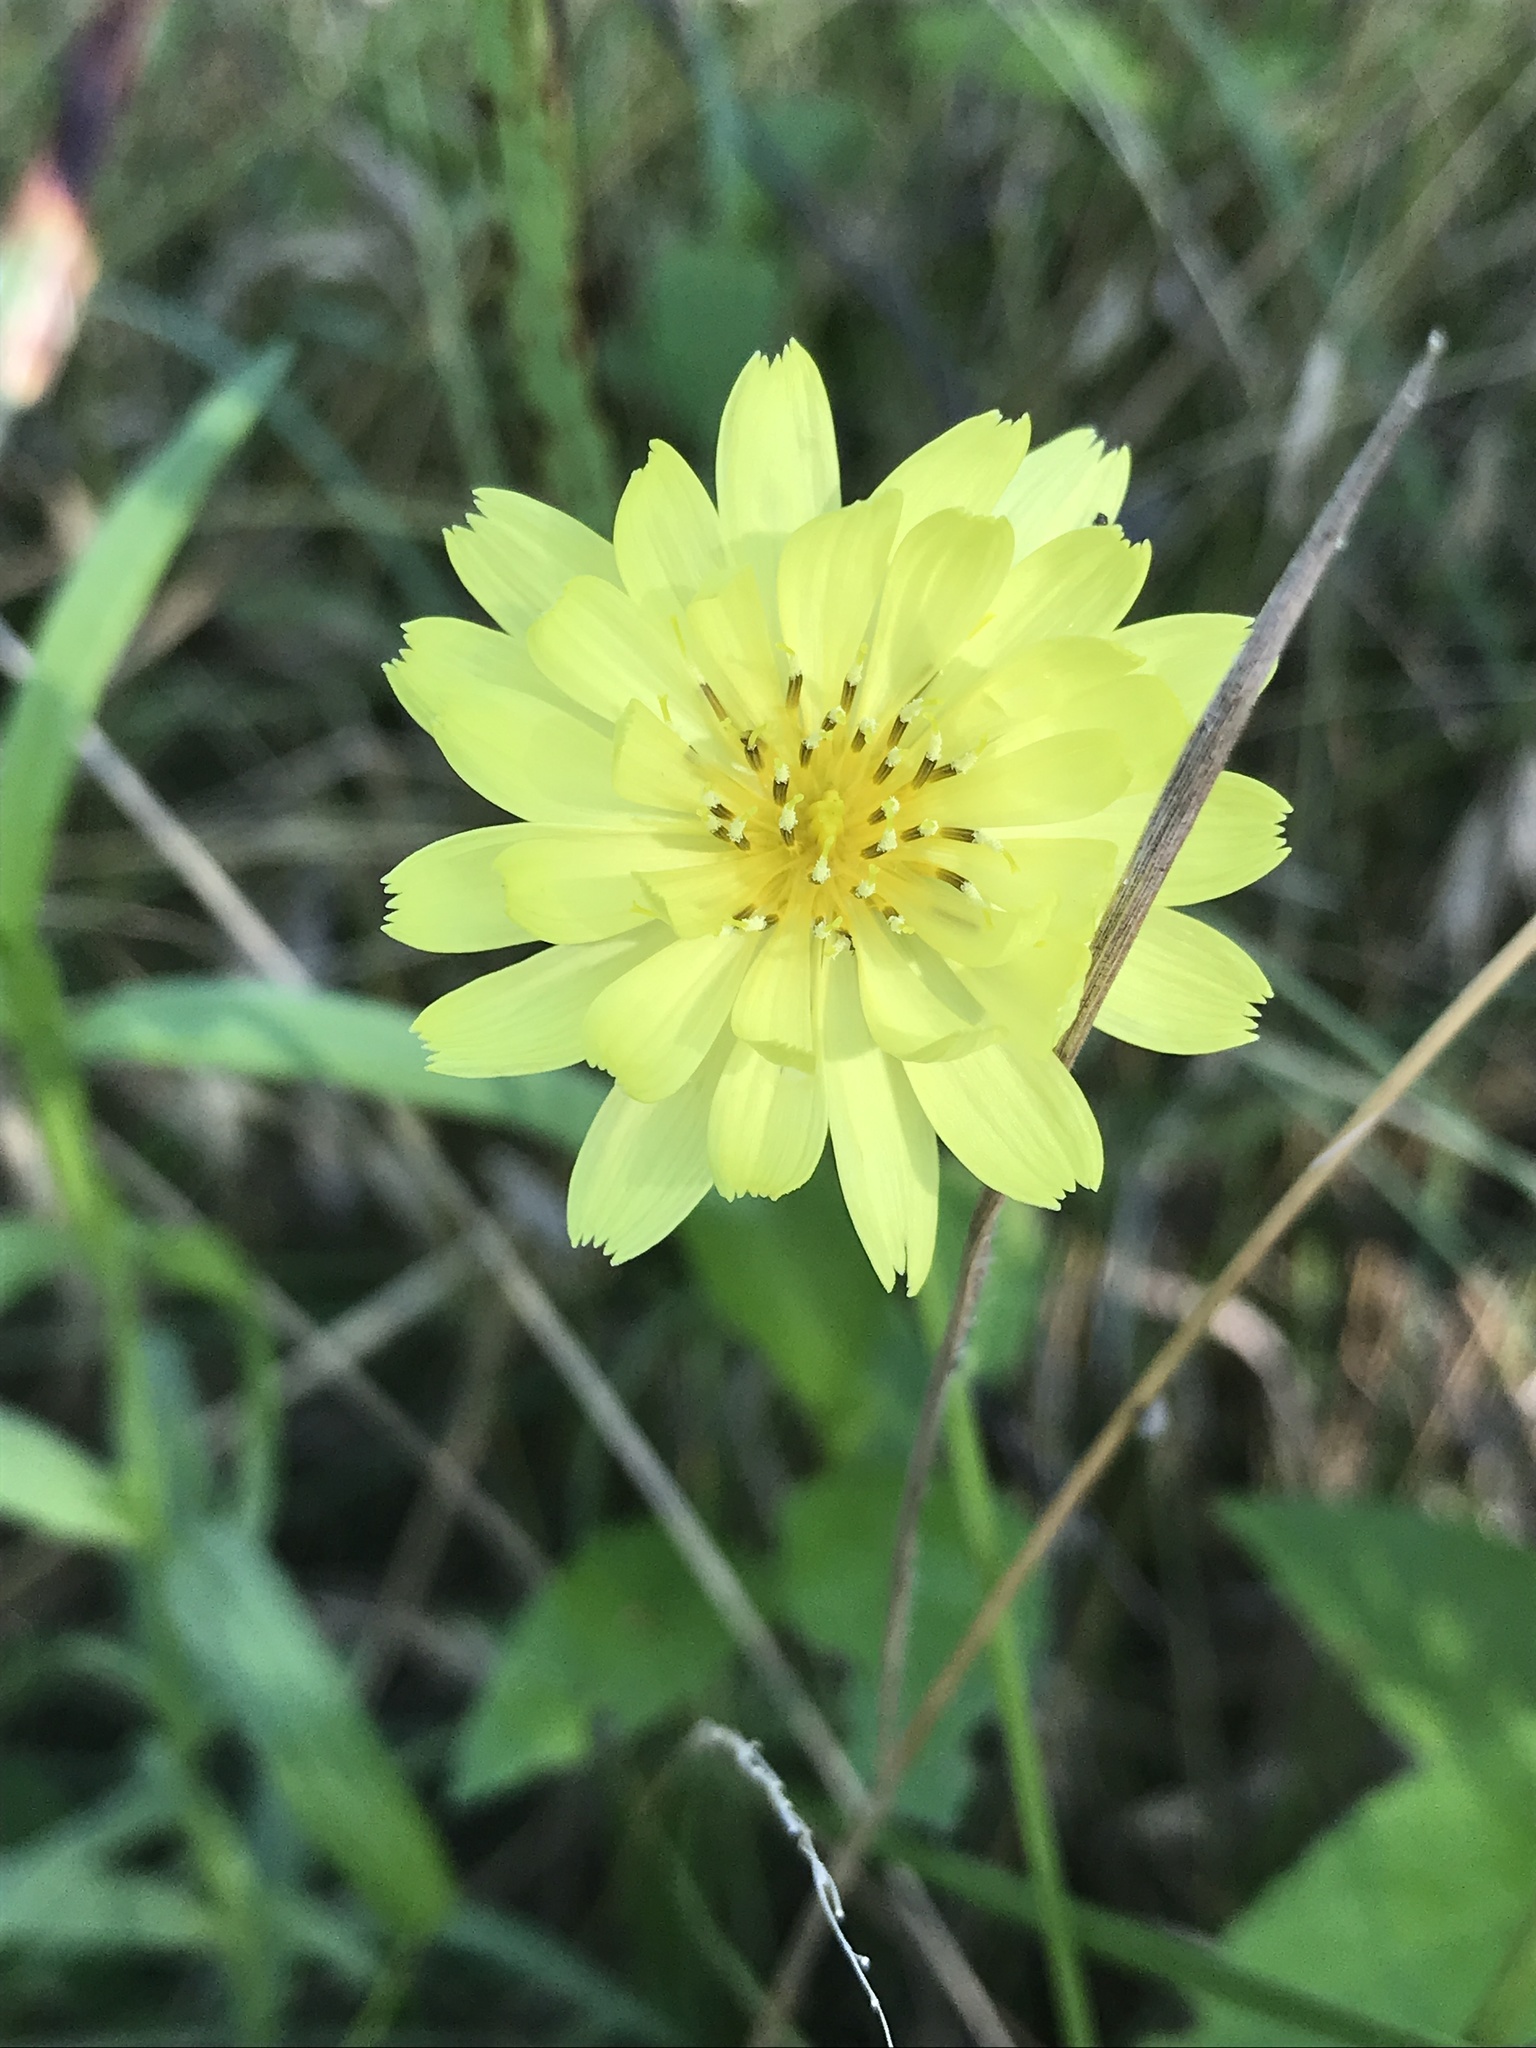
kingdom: Plantae
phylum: Tracheophyta
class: Magnoliopsida
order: Asterales
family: Asteraceae
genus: Pyrrhopappus
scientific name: Pyrrhopappus pauciflorus
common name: Texas false dandelion
